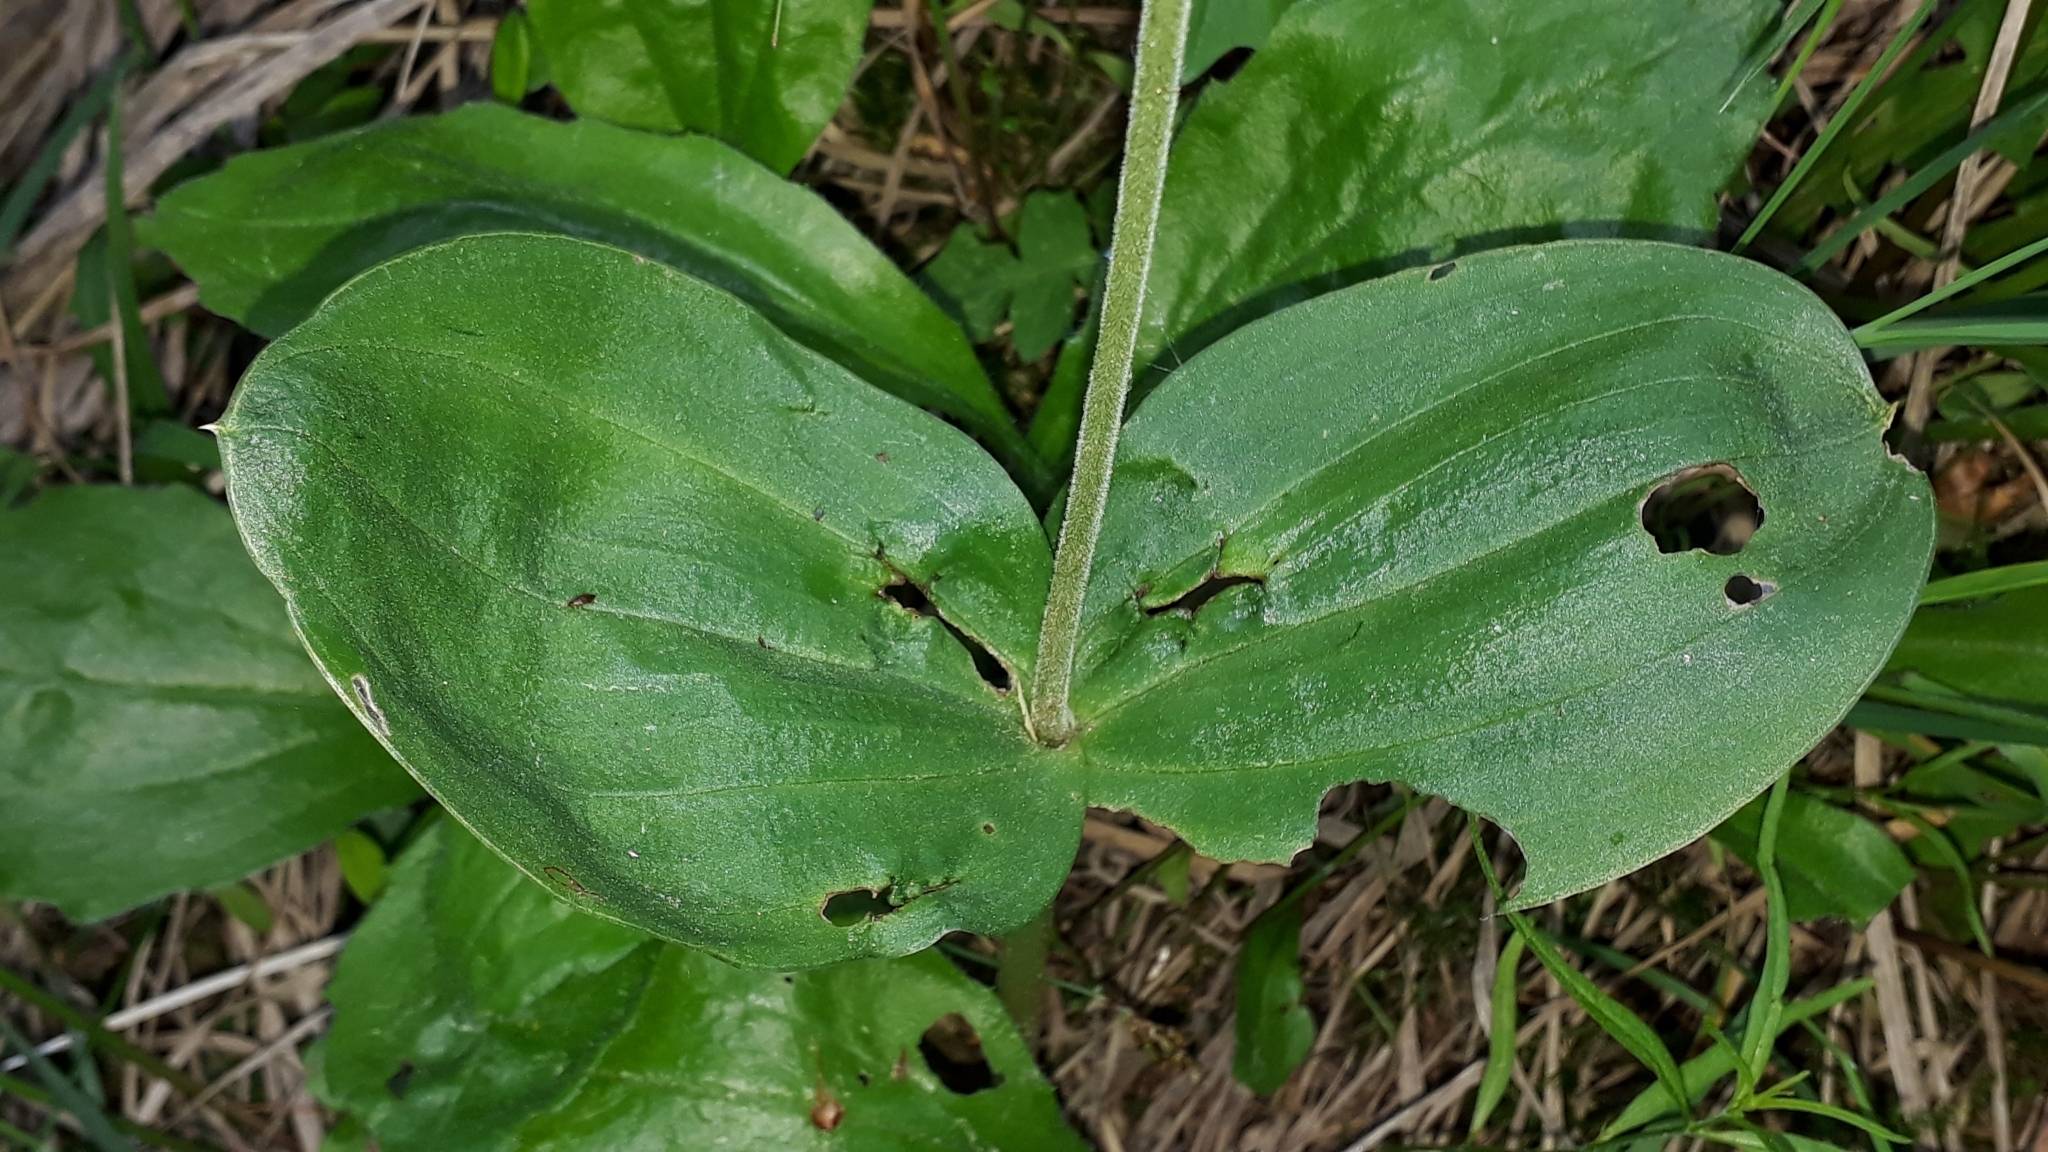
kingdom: Plantae
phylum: Tracheophyta
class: Liliopsida
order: Asparagales
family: Orchidaceae
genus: Neottia
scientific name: Neottia ovata
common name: Common twayblade
